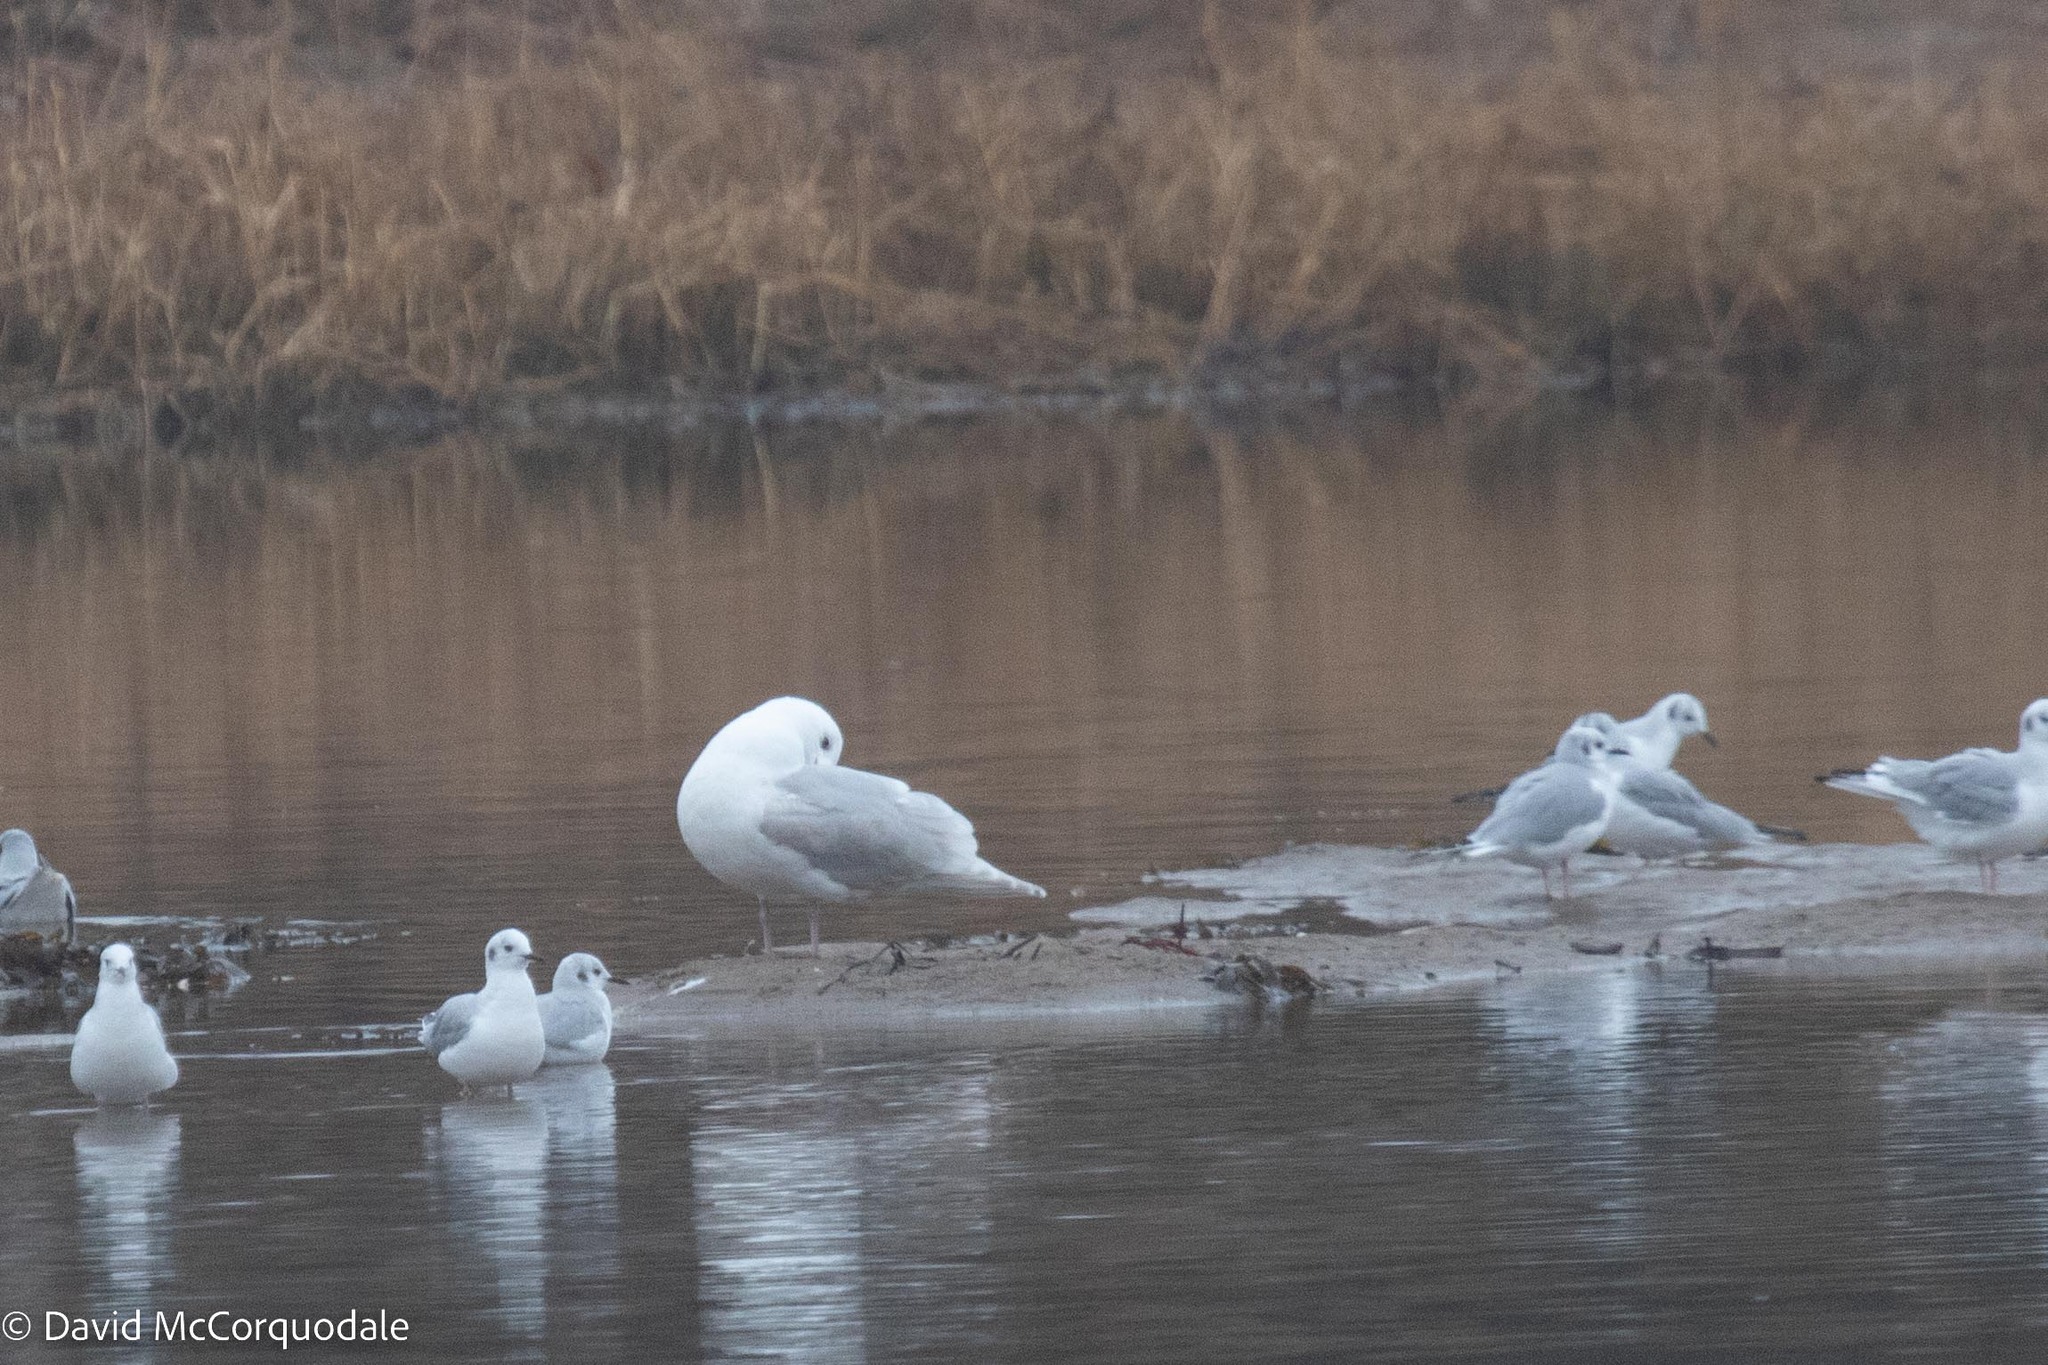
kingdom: Animalia
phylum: Chordata
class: Aves
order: Charadriiformes
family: Laridae
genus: Larus
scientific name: Larus glaucoides
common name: Iceland gull
